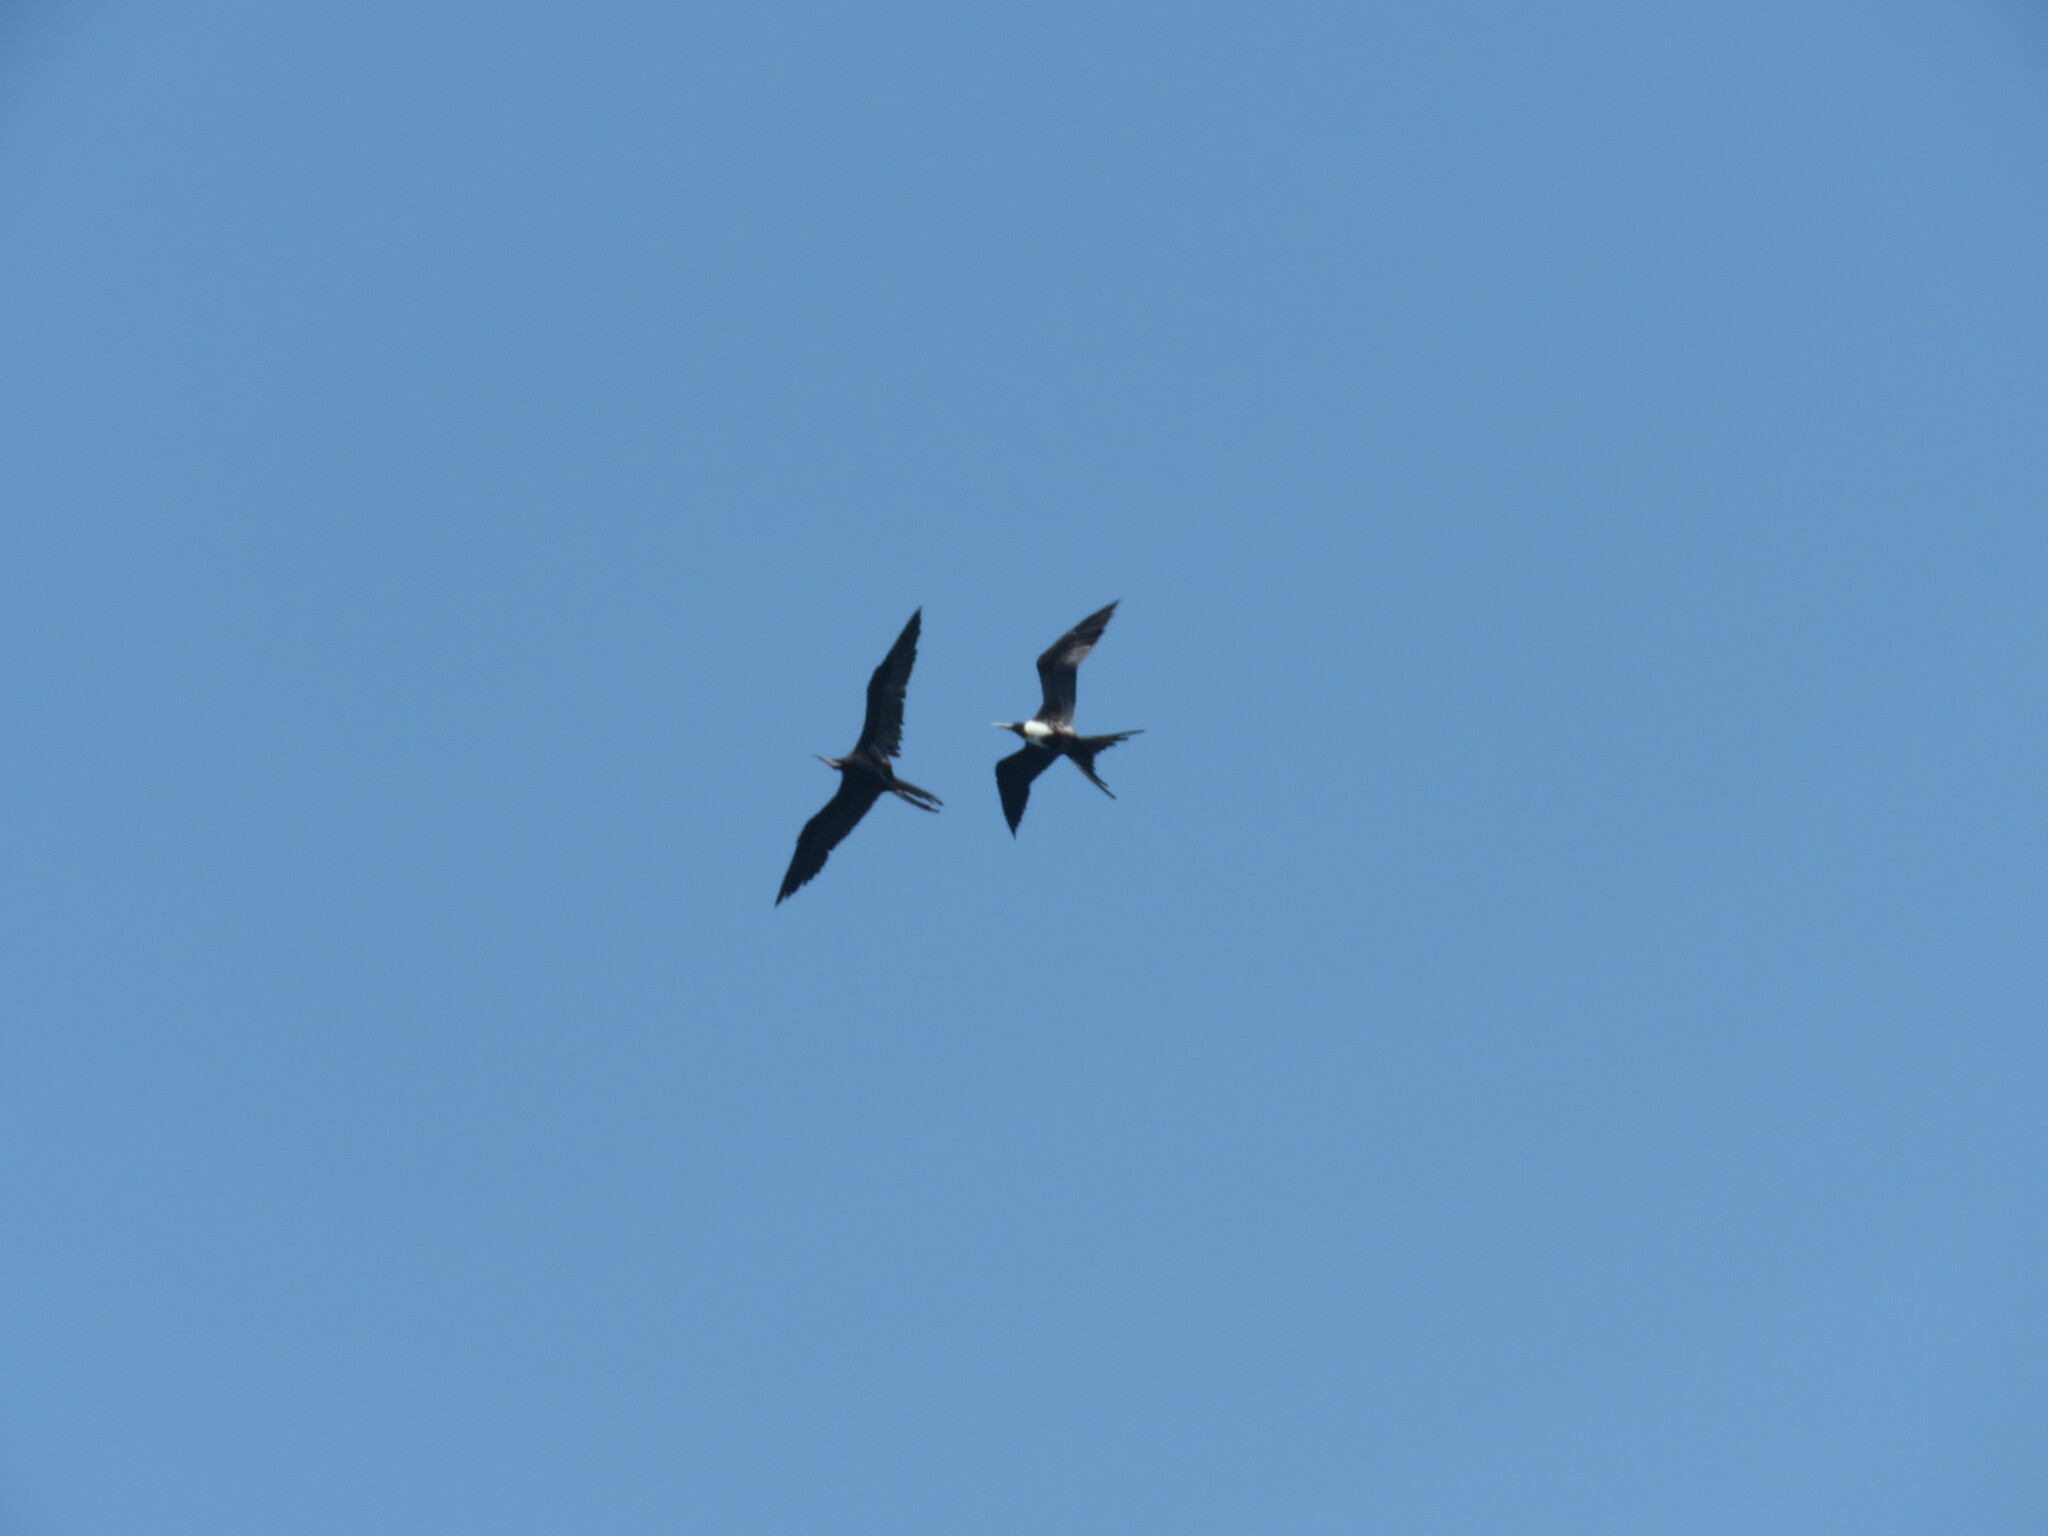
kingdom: Animalia
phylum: Chordata
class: Aves
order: Suliformes
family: Fregatidae
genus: Fregata
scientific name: Fregata magnificens
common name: Magnificent frigatebird
